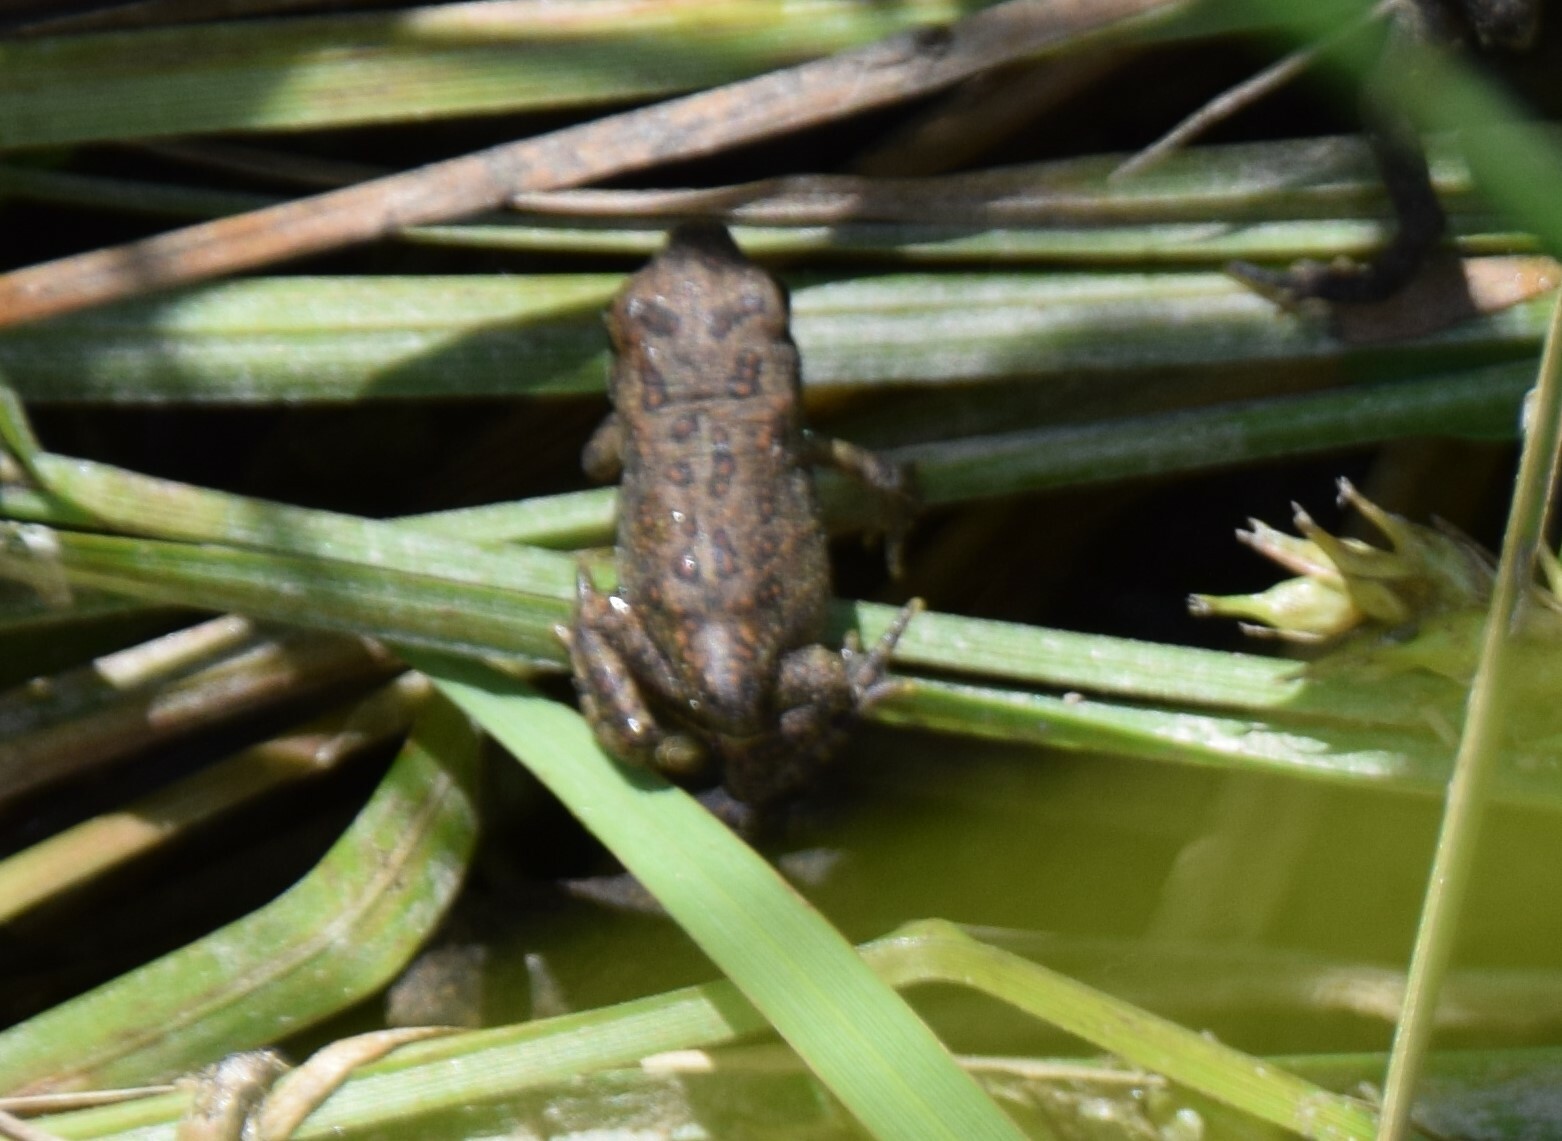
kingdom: Animalia
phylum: Chordata
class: Amphibia
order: Anura
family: Bufonidae
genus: Anaxyrus
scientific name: Anaxyrus americanus
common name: American toad
